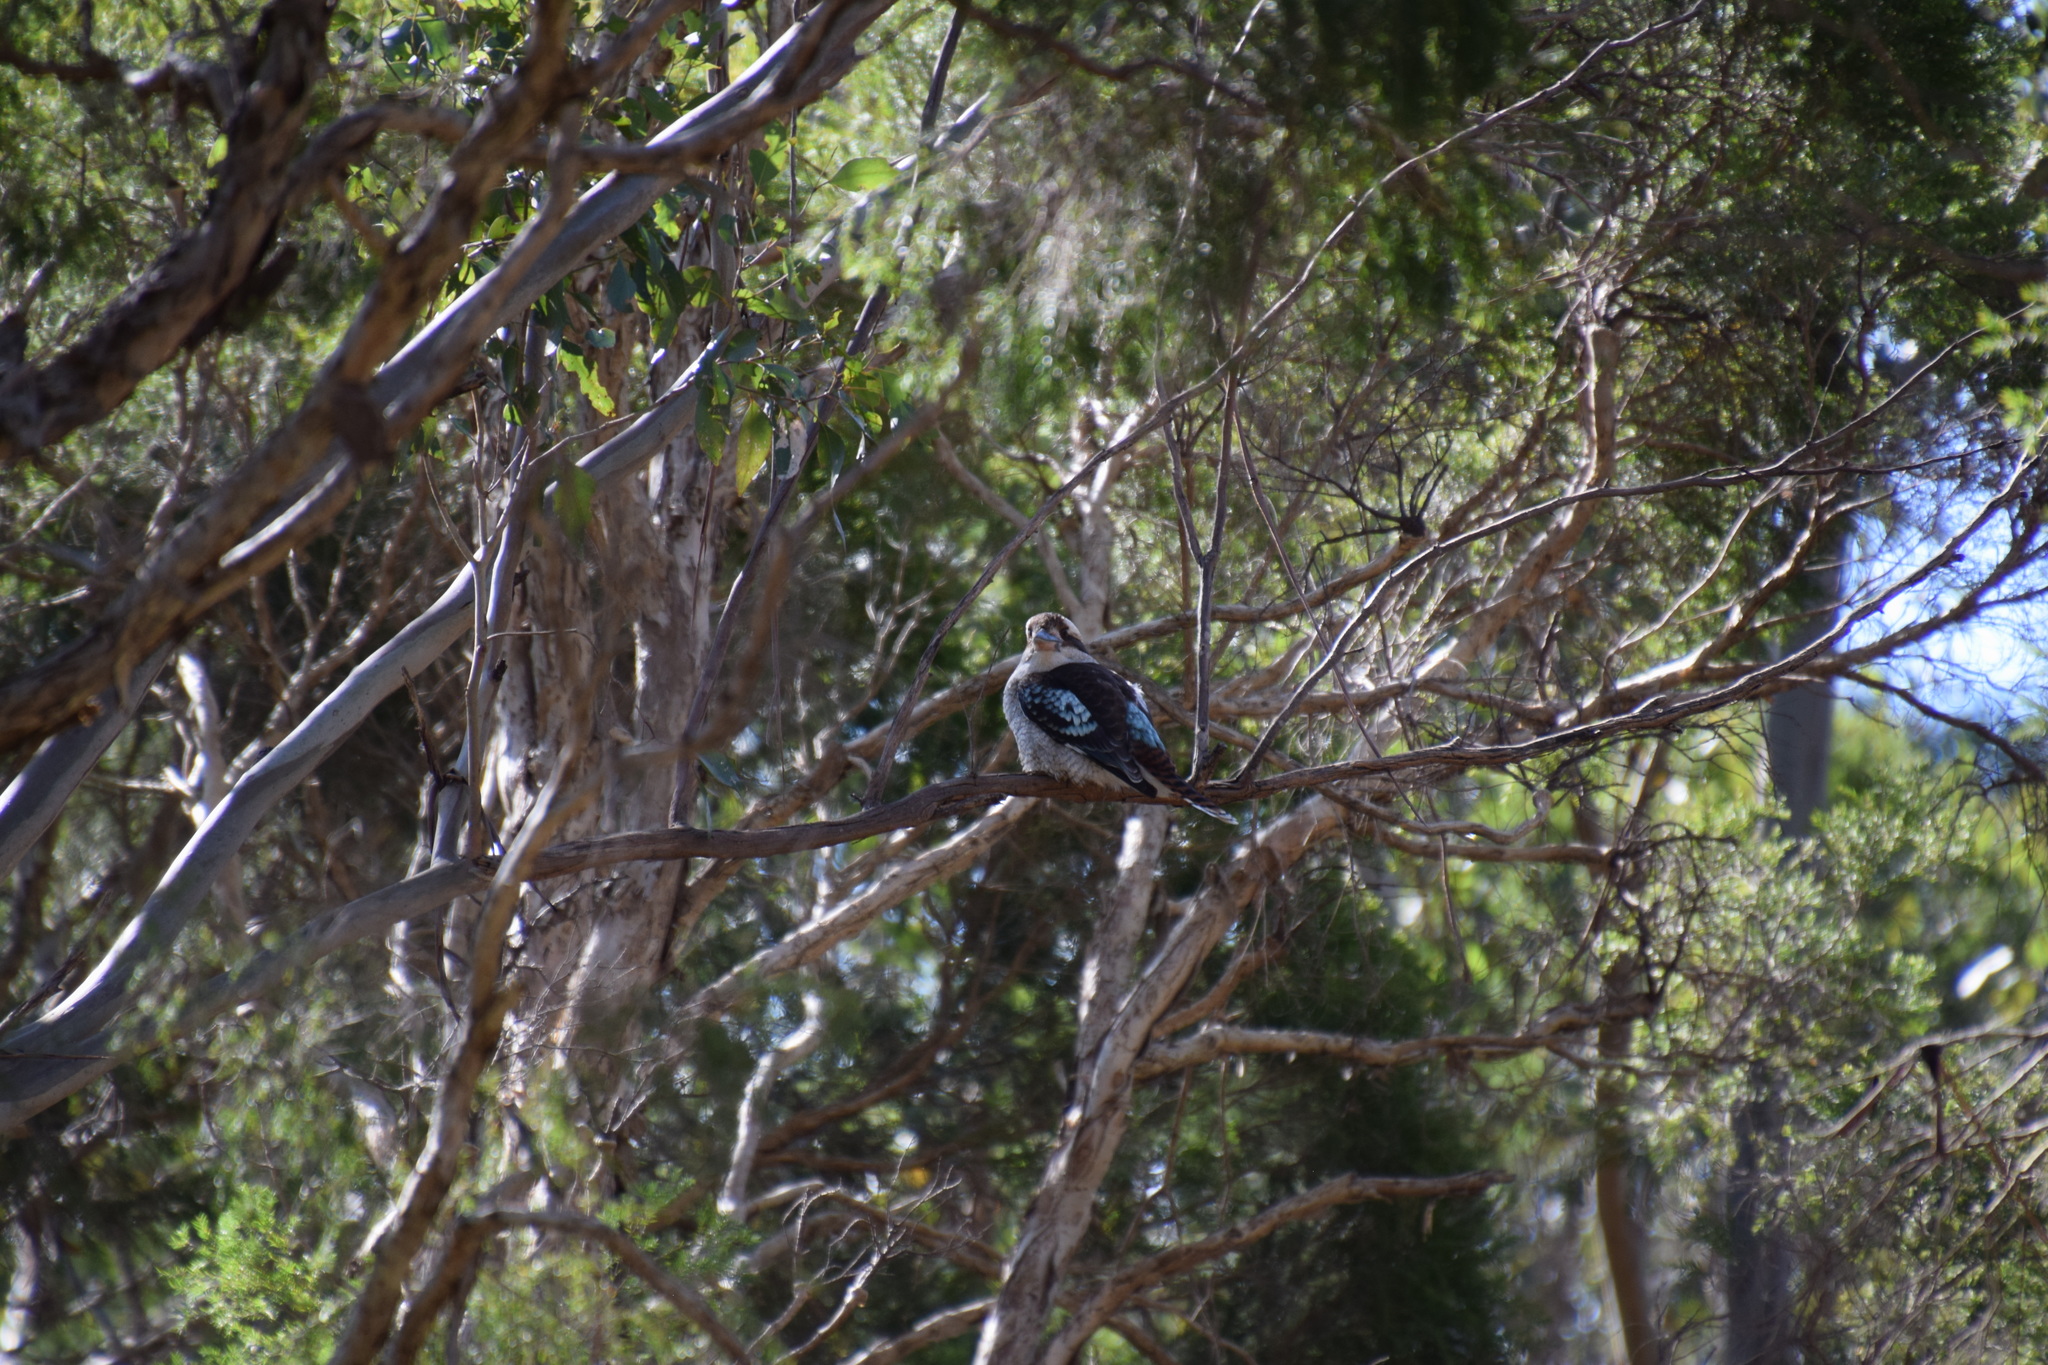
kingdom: Animalia
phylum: Chordata
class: Aves
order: Coraciiformes
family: Alcedinidae
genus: Dacelo
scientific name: Dacelo novaeguineae
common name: Laughing kookaburra
